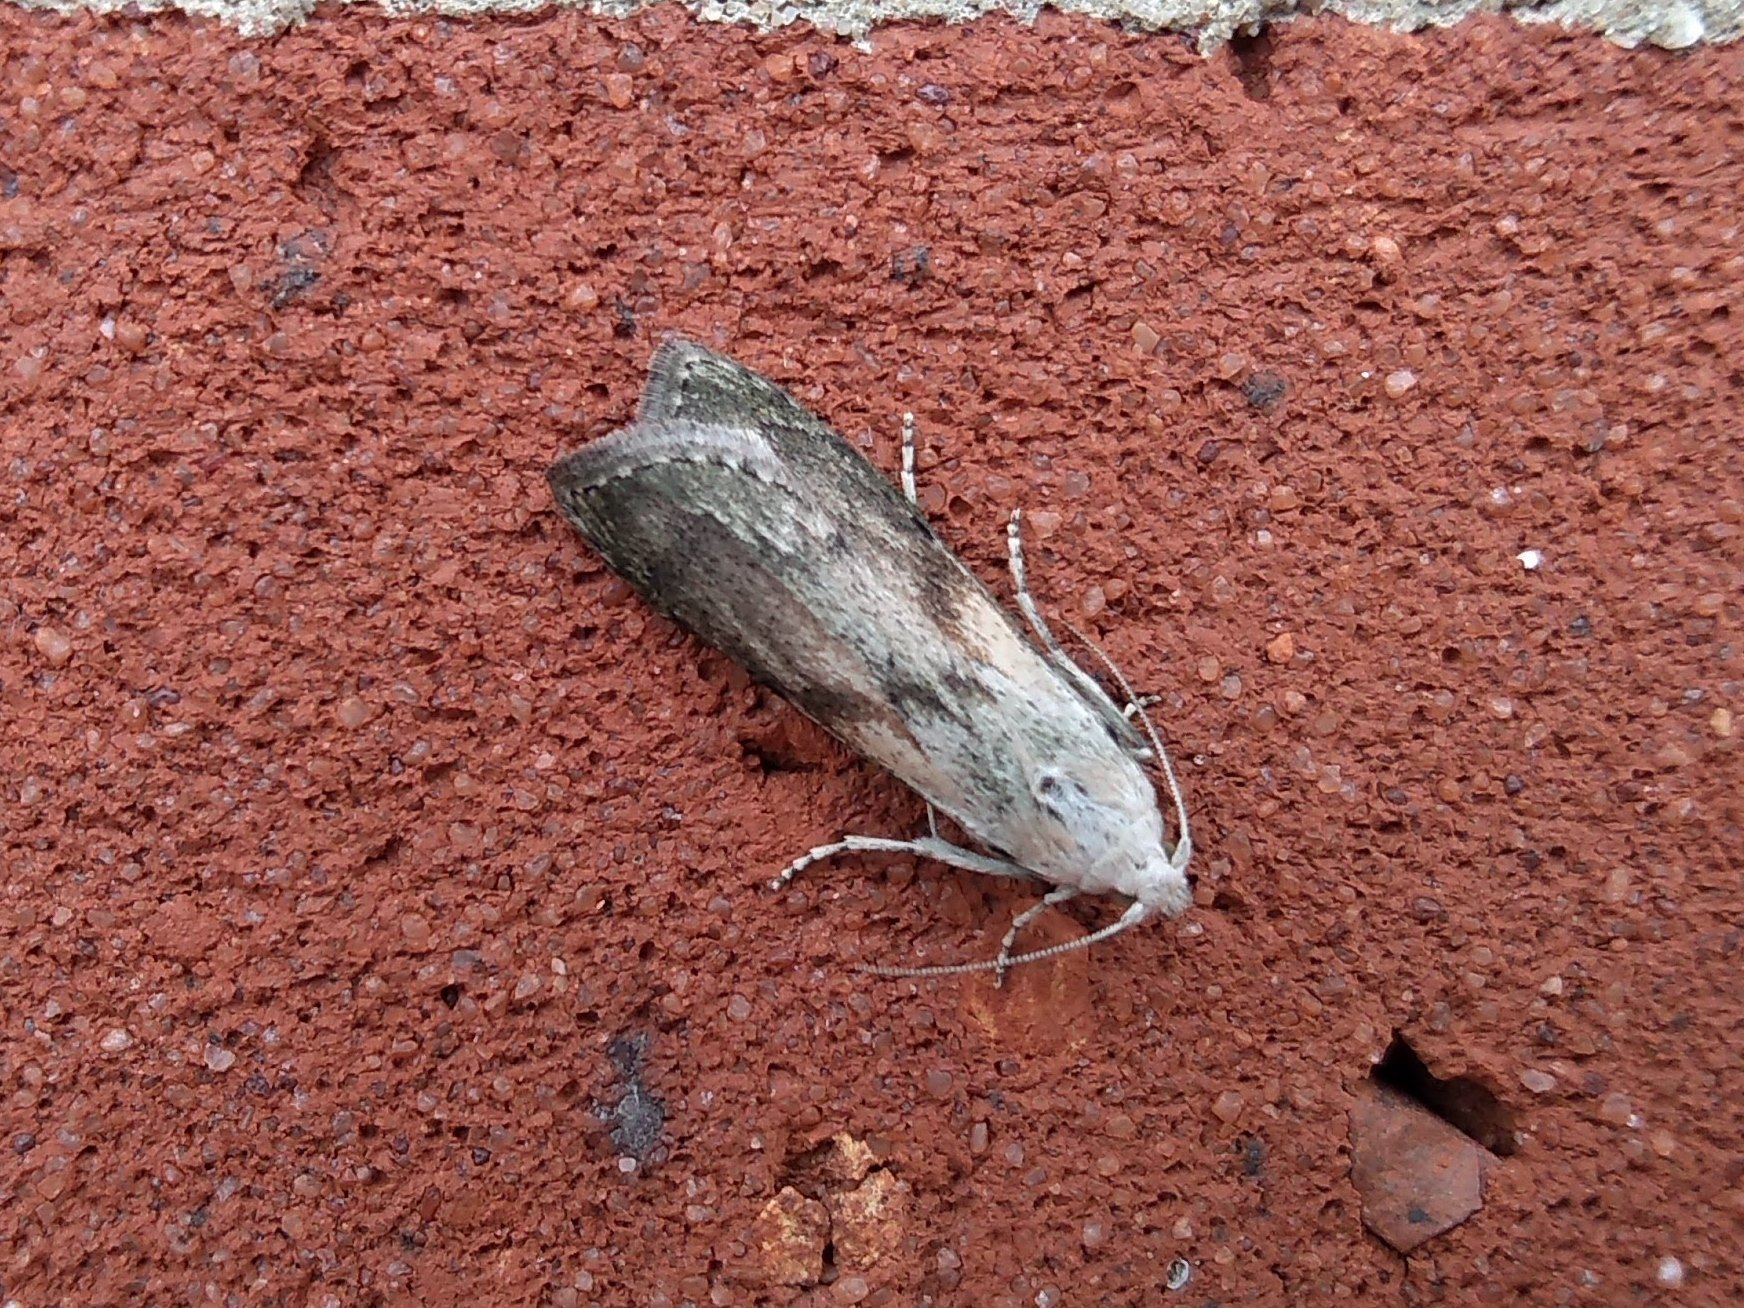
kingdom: Animalia
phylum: Arthropoda
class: Insecta
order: Lepidoptera
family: Pyralidae
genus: Aphomia
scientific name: Aphomia sociella
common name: Bee moth
